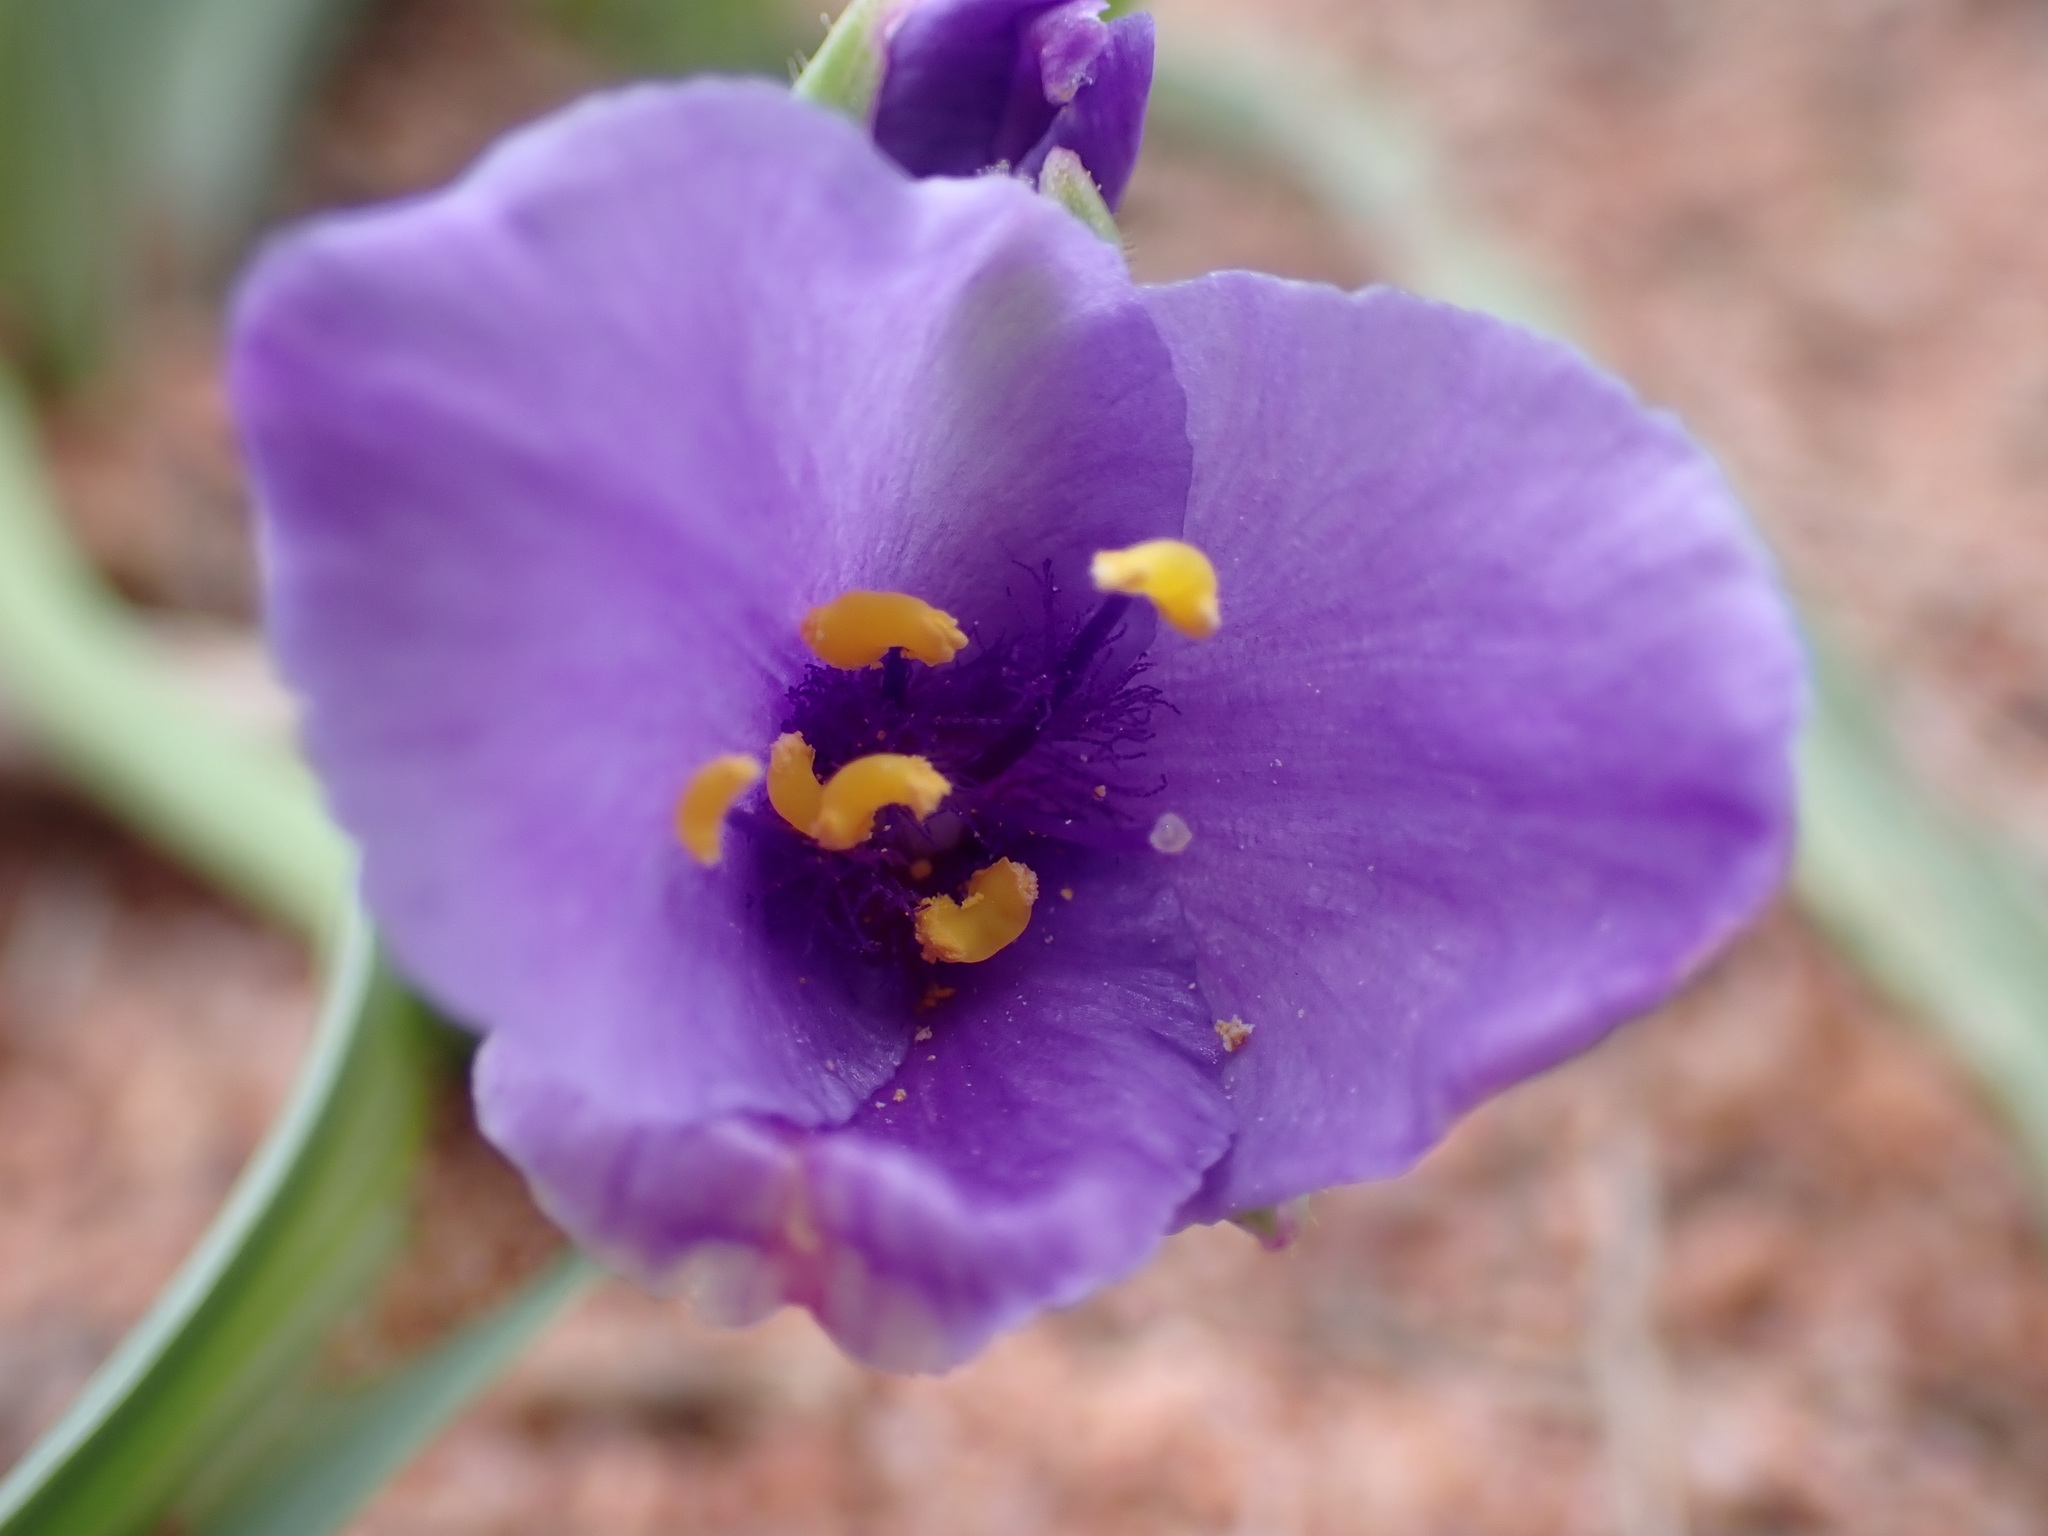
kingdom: Plantae
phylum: Tracheophyta
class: Liliopsida
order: Commelinales
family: Commelinaceae
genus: Tradescantia
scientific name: Tradescantia occidentalis
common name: Prairie spiderwort
